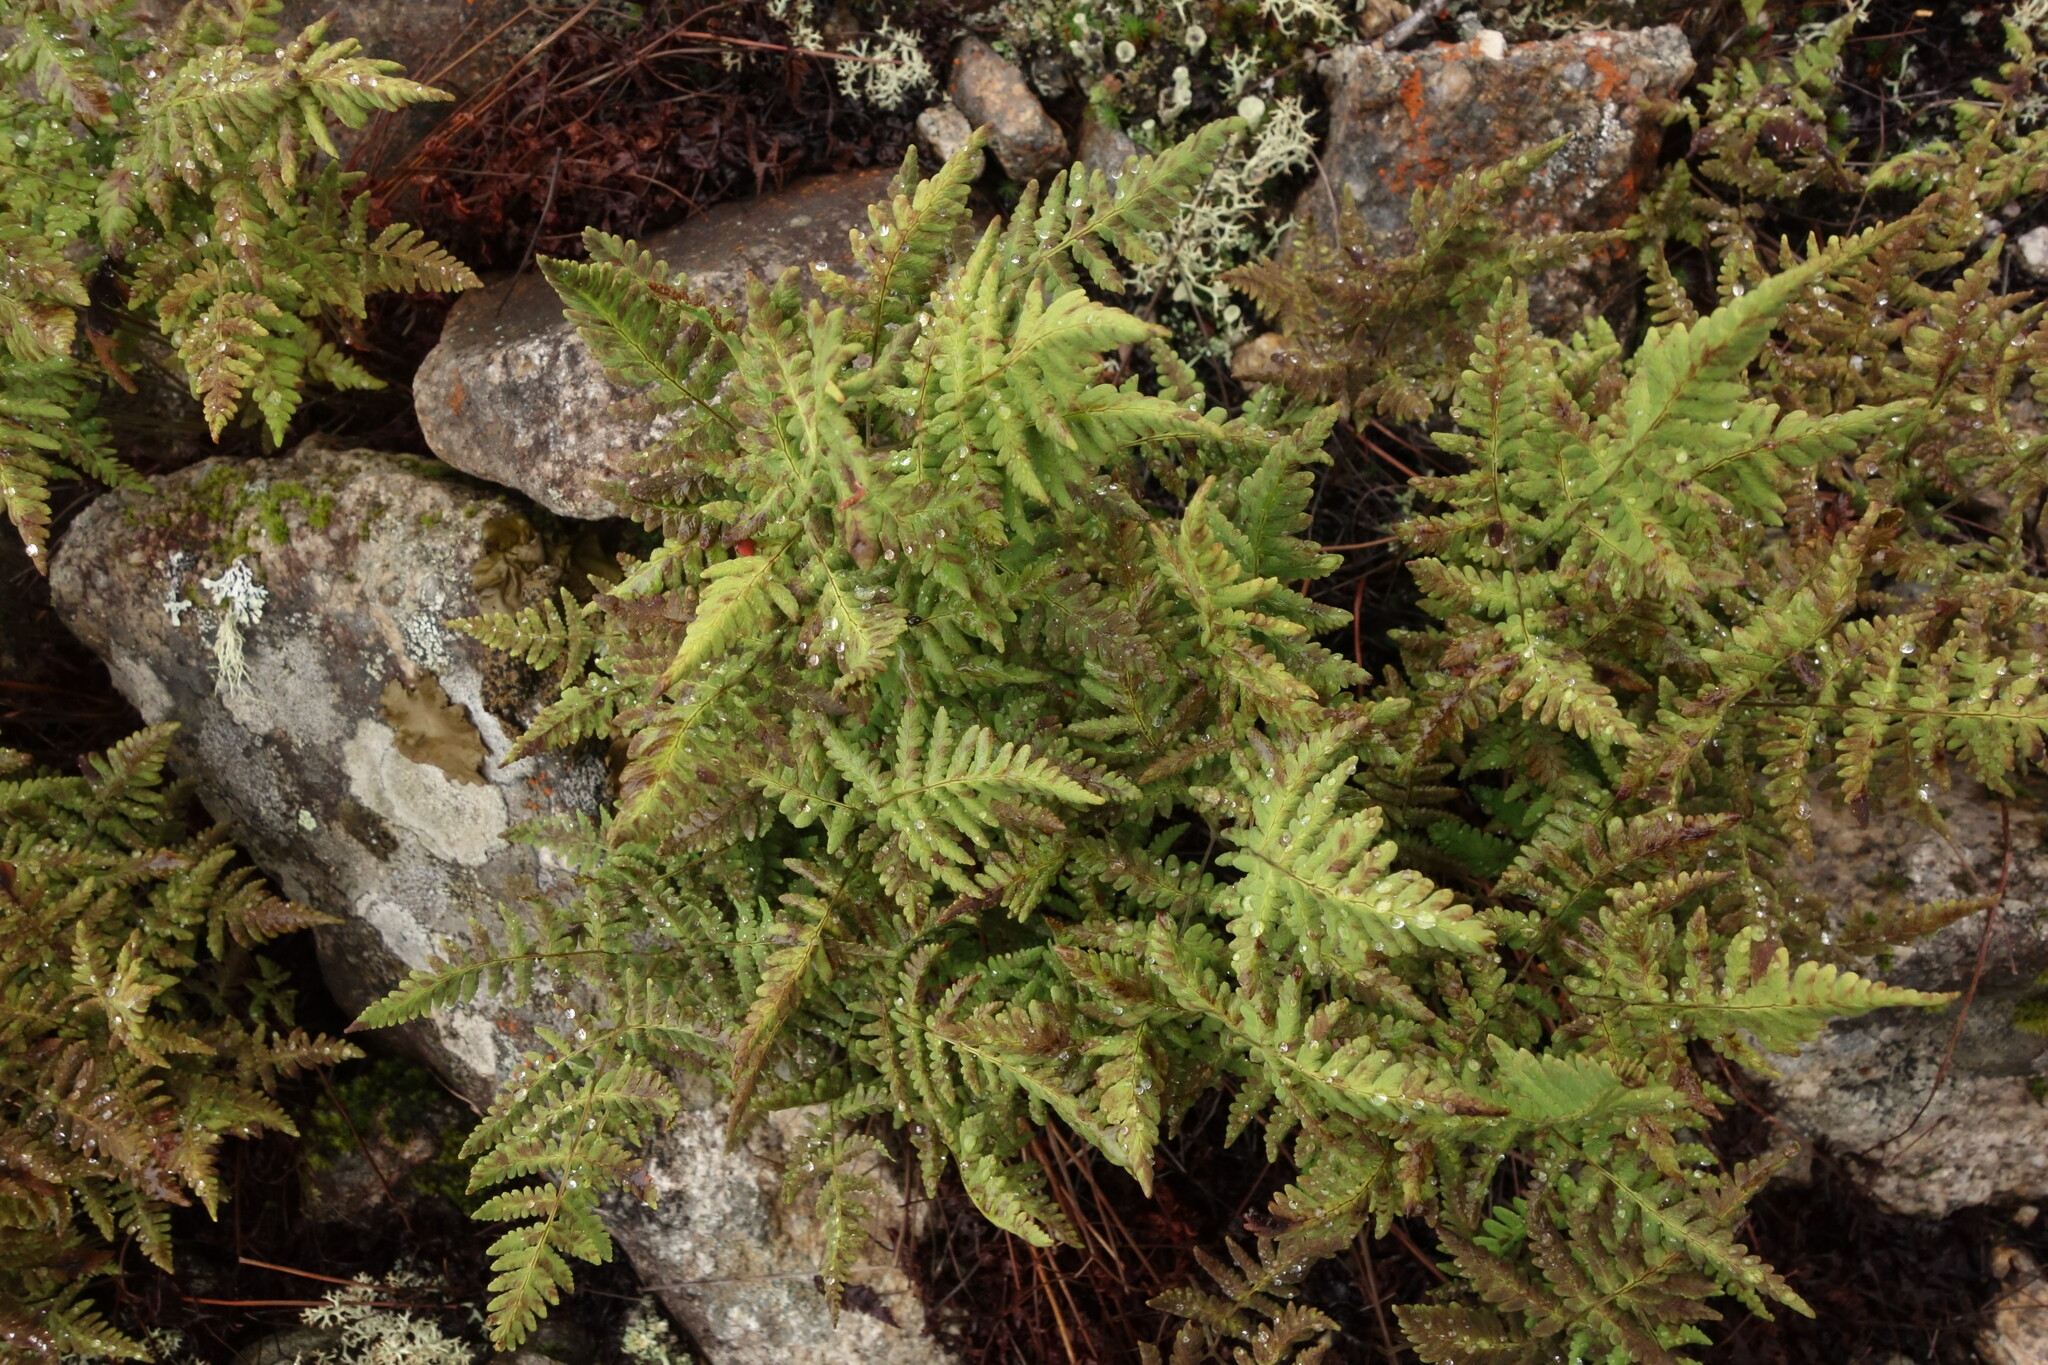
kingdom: Plantae
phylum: Tracheophyta
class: Polypodiopsida
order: Polypodiales
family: Cystopteridaceae
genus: Gymnocarpium
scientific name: Gymnocarpium jessoense
